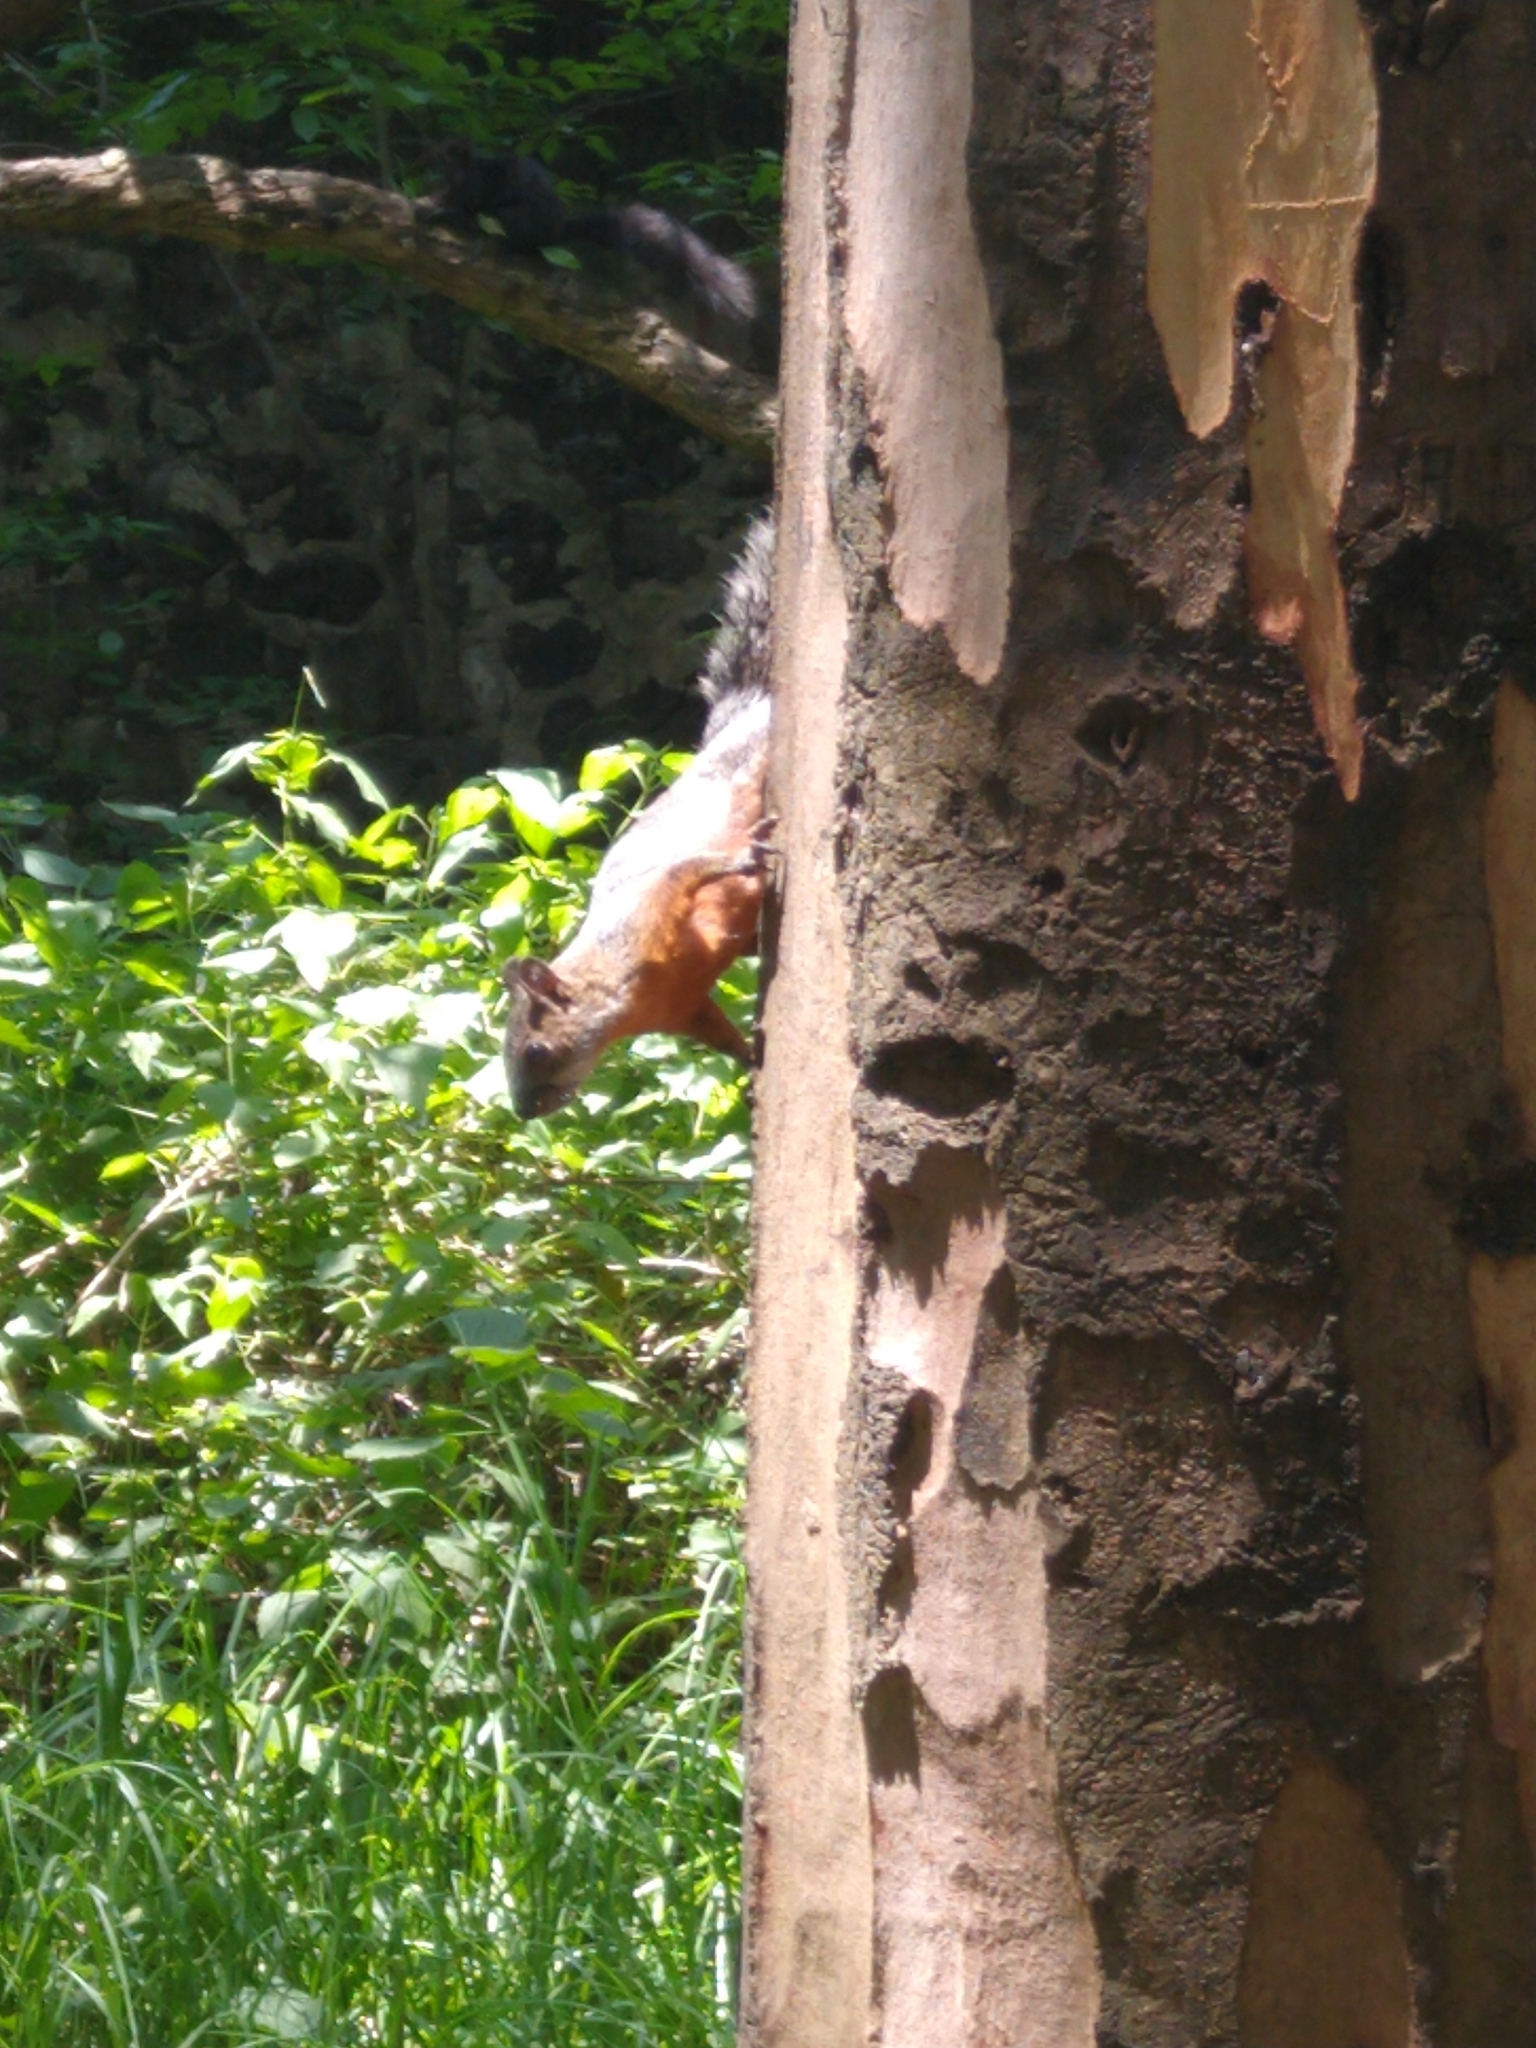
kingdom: Animalia
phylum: Chordata
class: Mammalia
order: Rodentia
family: Sciuridae
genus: Sciurus
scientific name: Sciurus aureogaster
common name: Red-bellied squirrel
